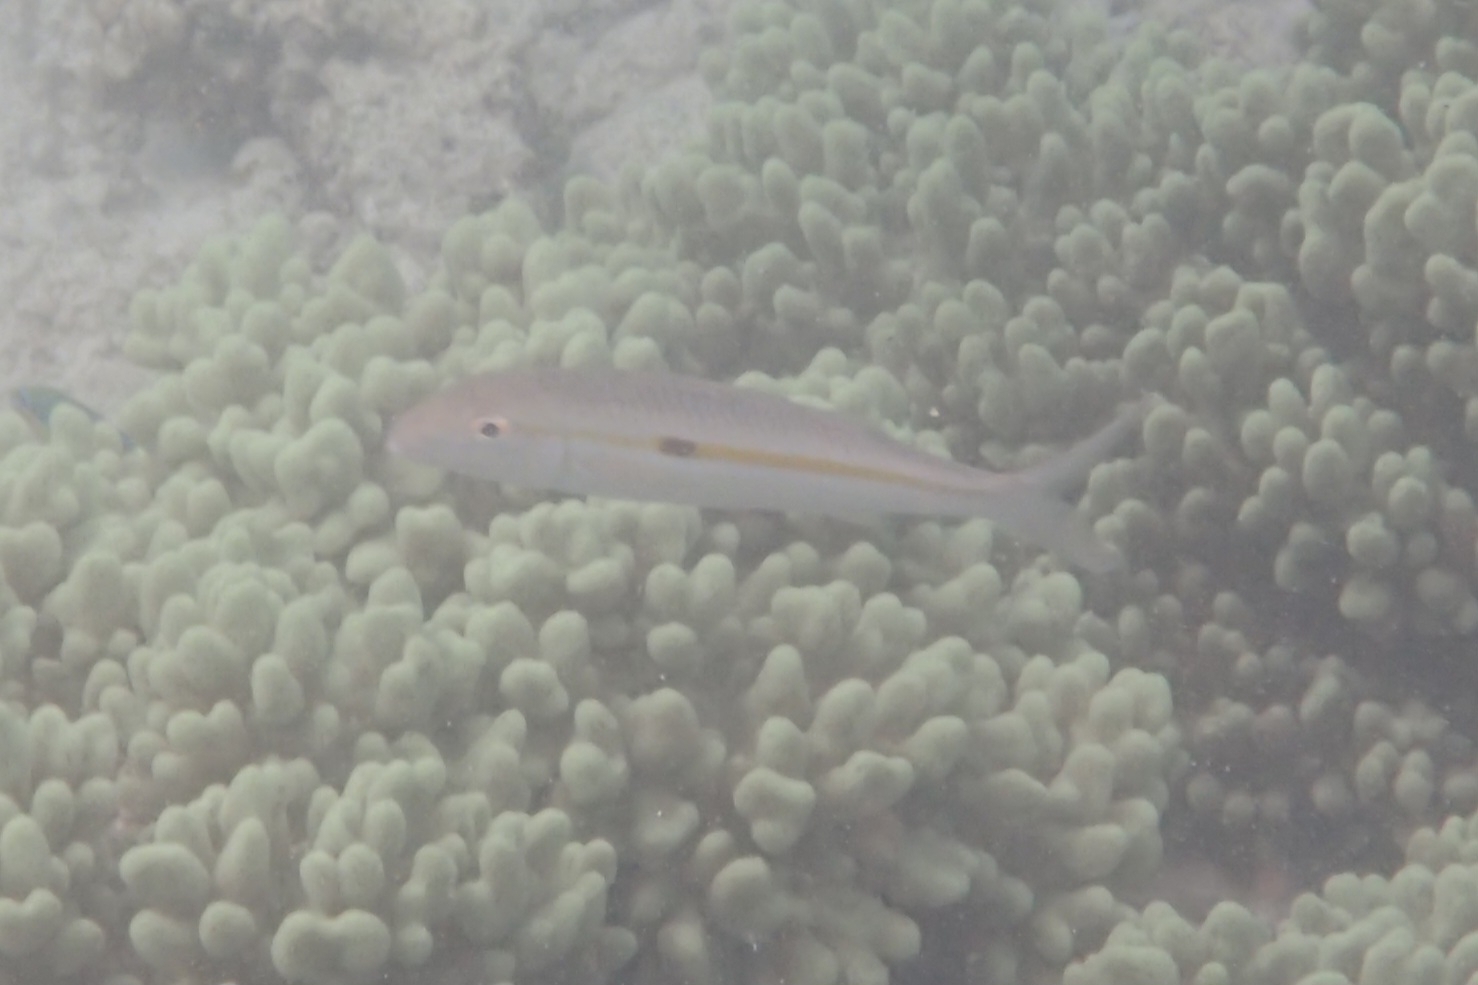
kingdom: Animalia
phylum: Chordata
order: Perciformes
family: Mullidae
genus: Mulloidichthys
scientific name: Mulloidichthys flavolineatus
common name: Yellowstripe goatfish
